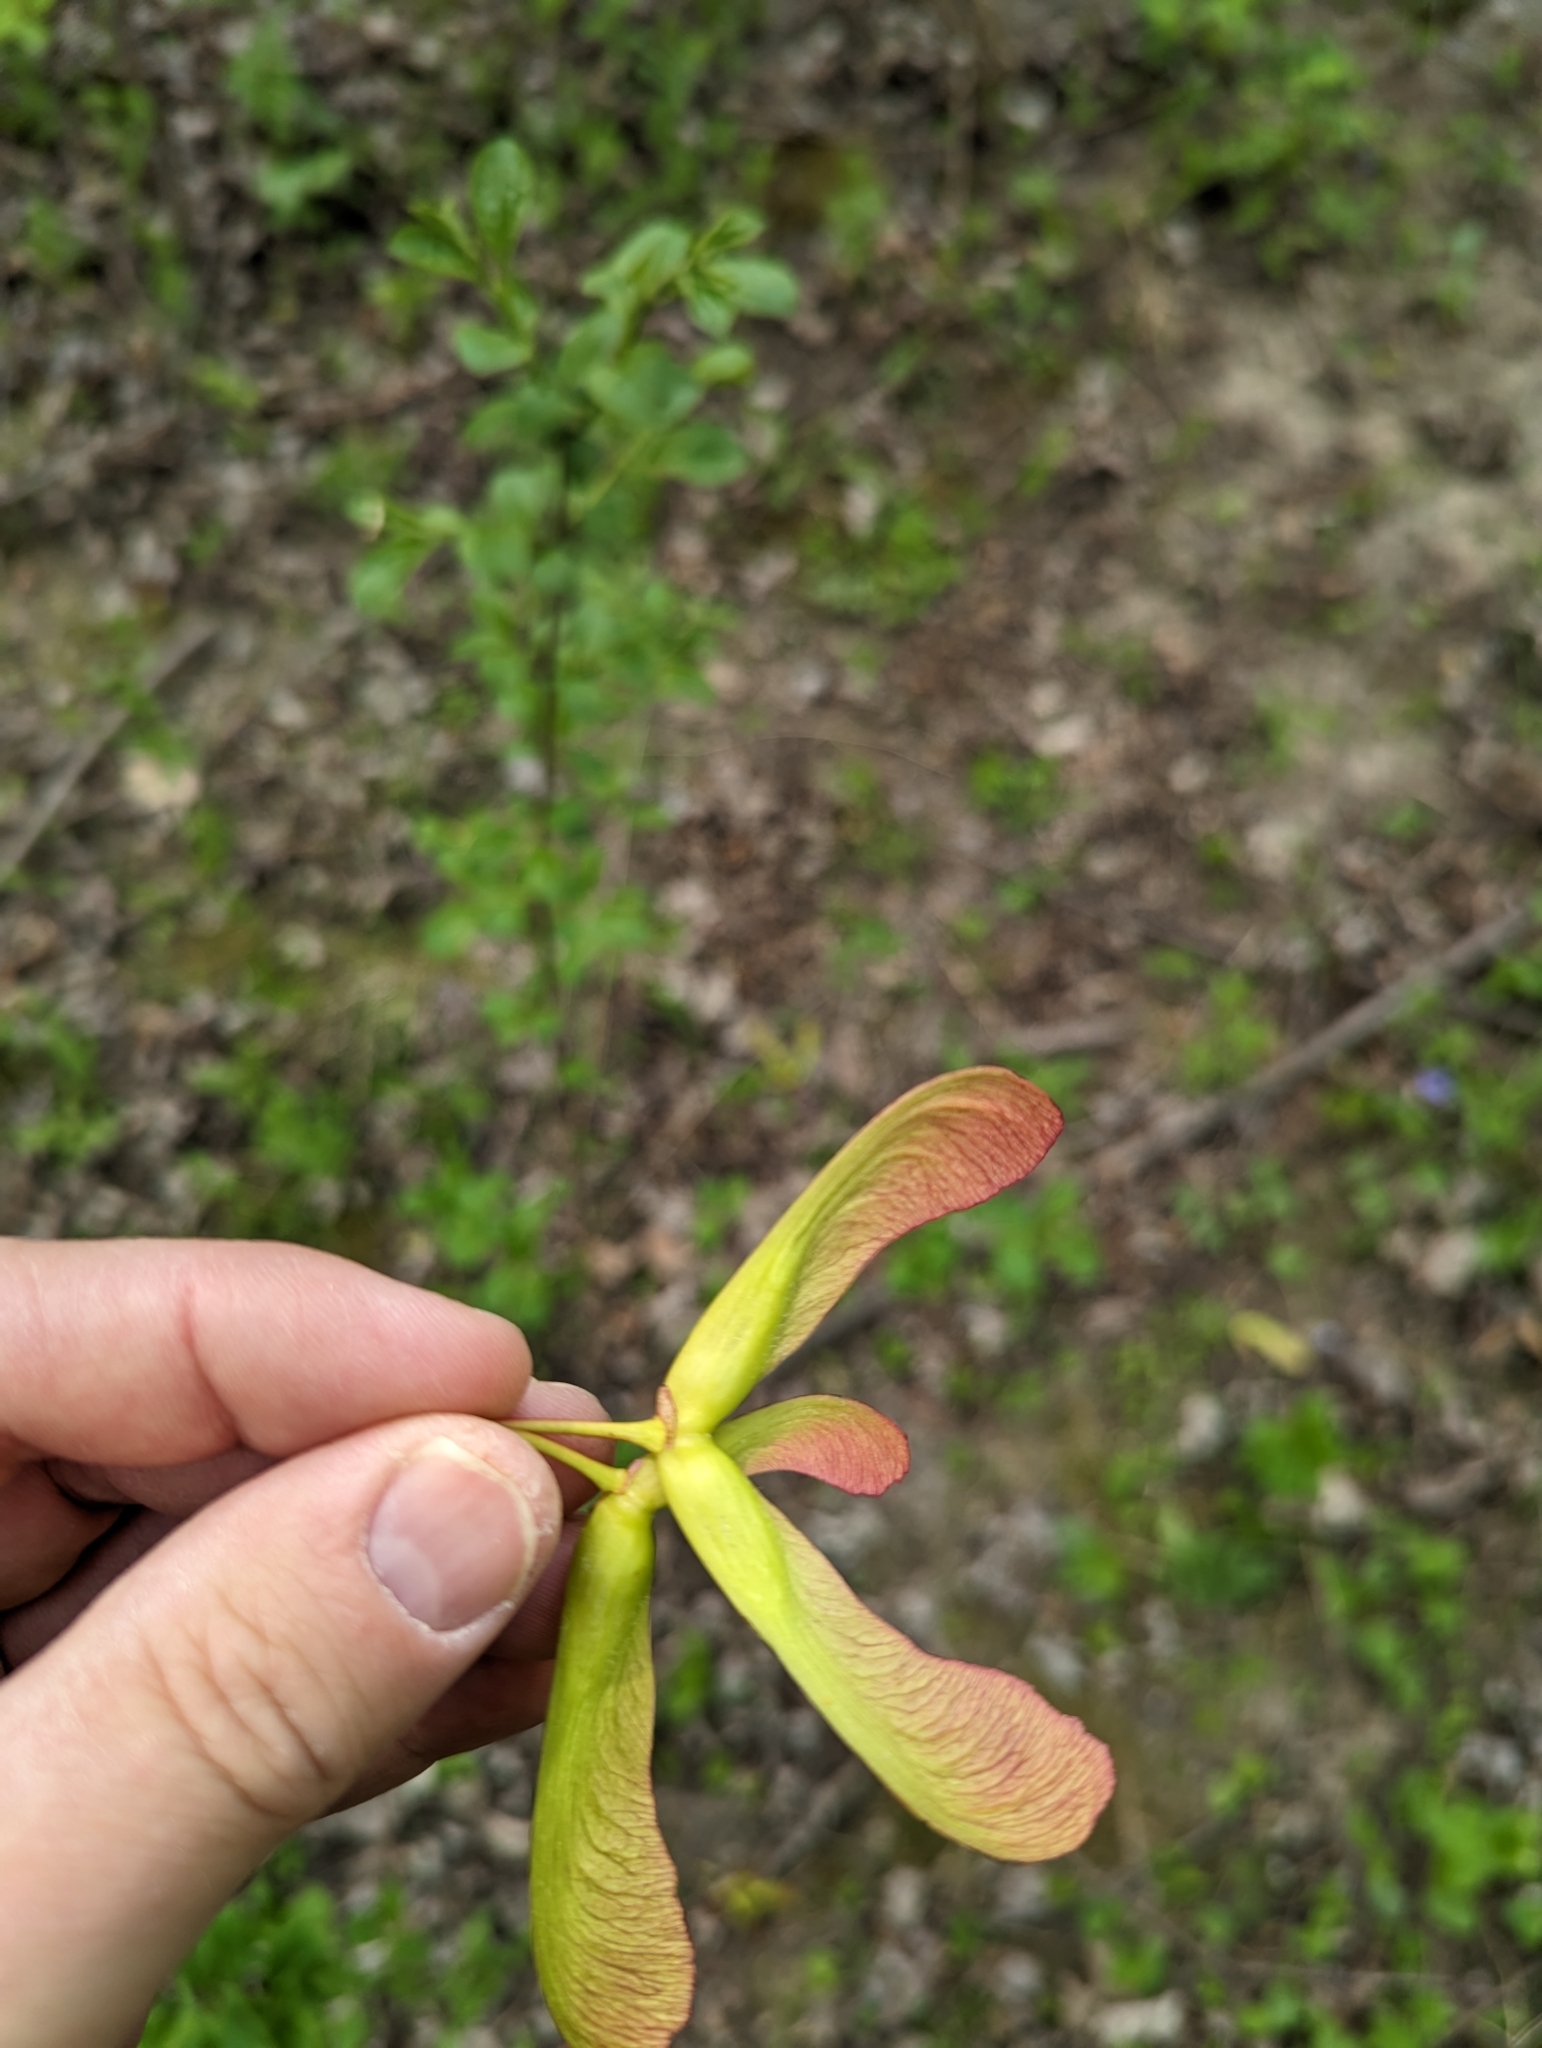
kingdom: Plantae
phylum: Tracheophyta
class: Magnoliopsida
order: Sapindales
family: Sapindaceae
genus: Acer
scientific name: Acer rubrum
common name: Red maple
